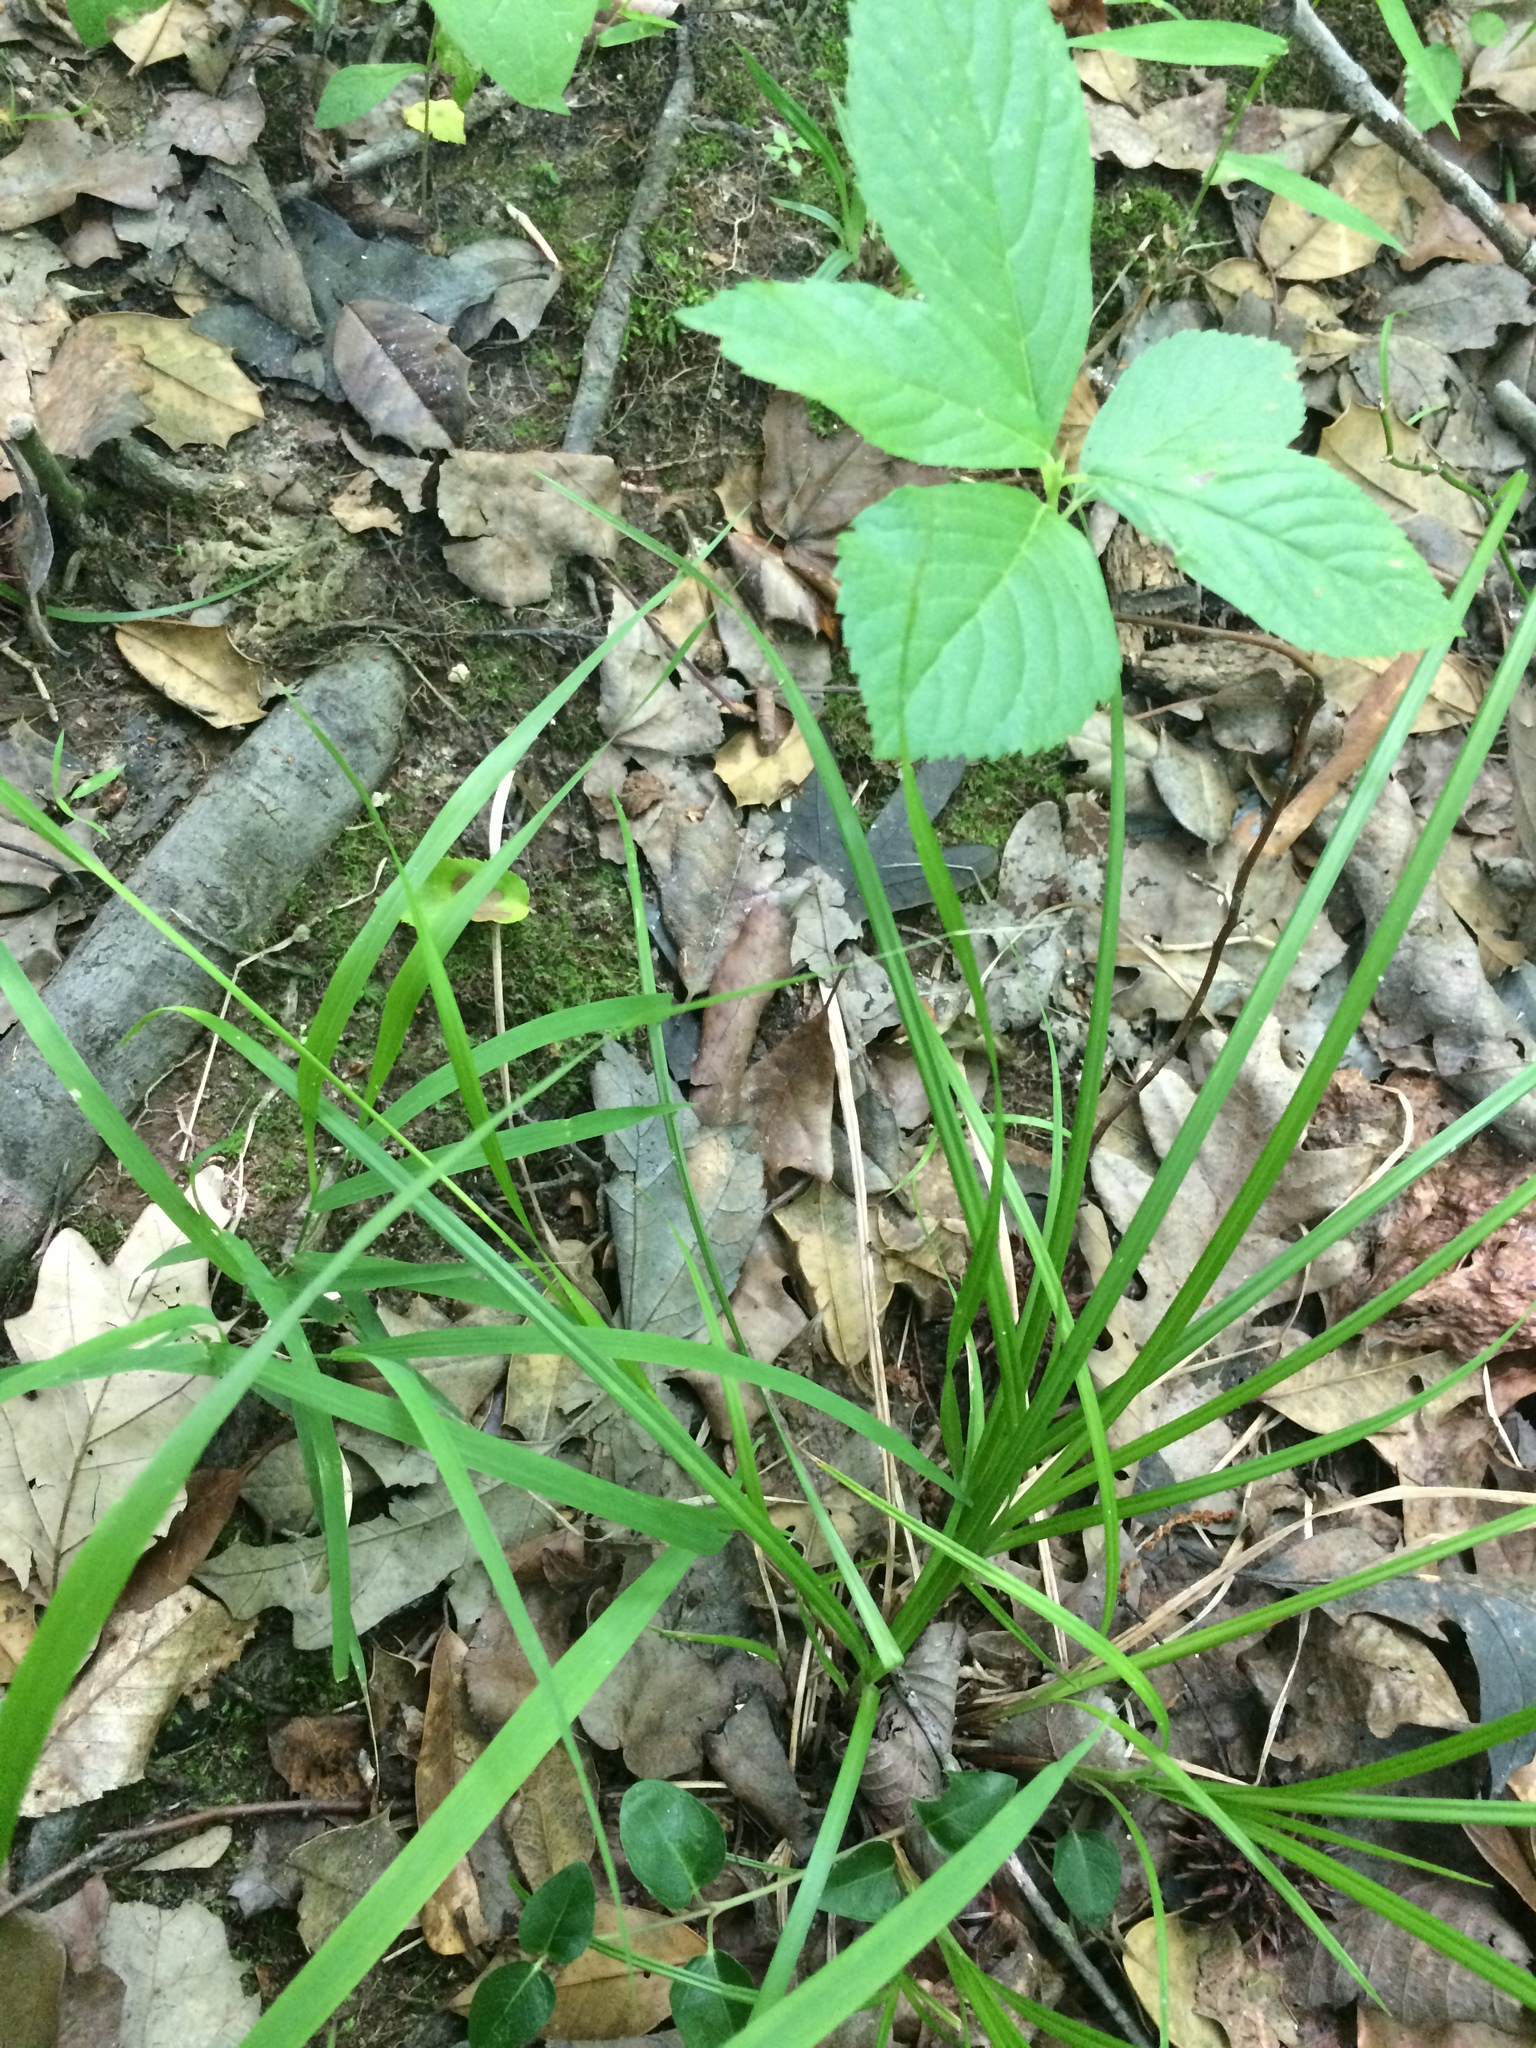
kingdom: Plantae
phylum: Tracheophyta
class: Liliopsida
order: Poales
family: Cyperaceae
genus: Carex
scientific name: Carex debilis
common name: White-edge sedge
